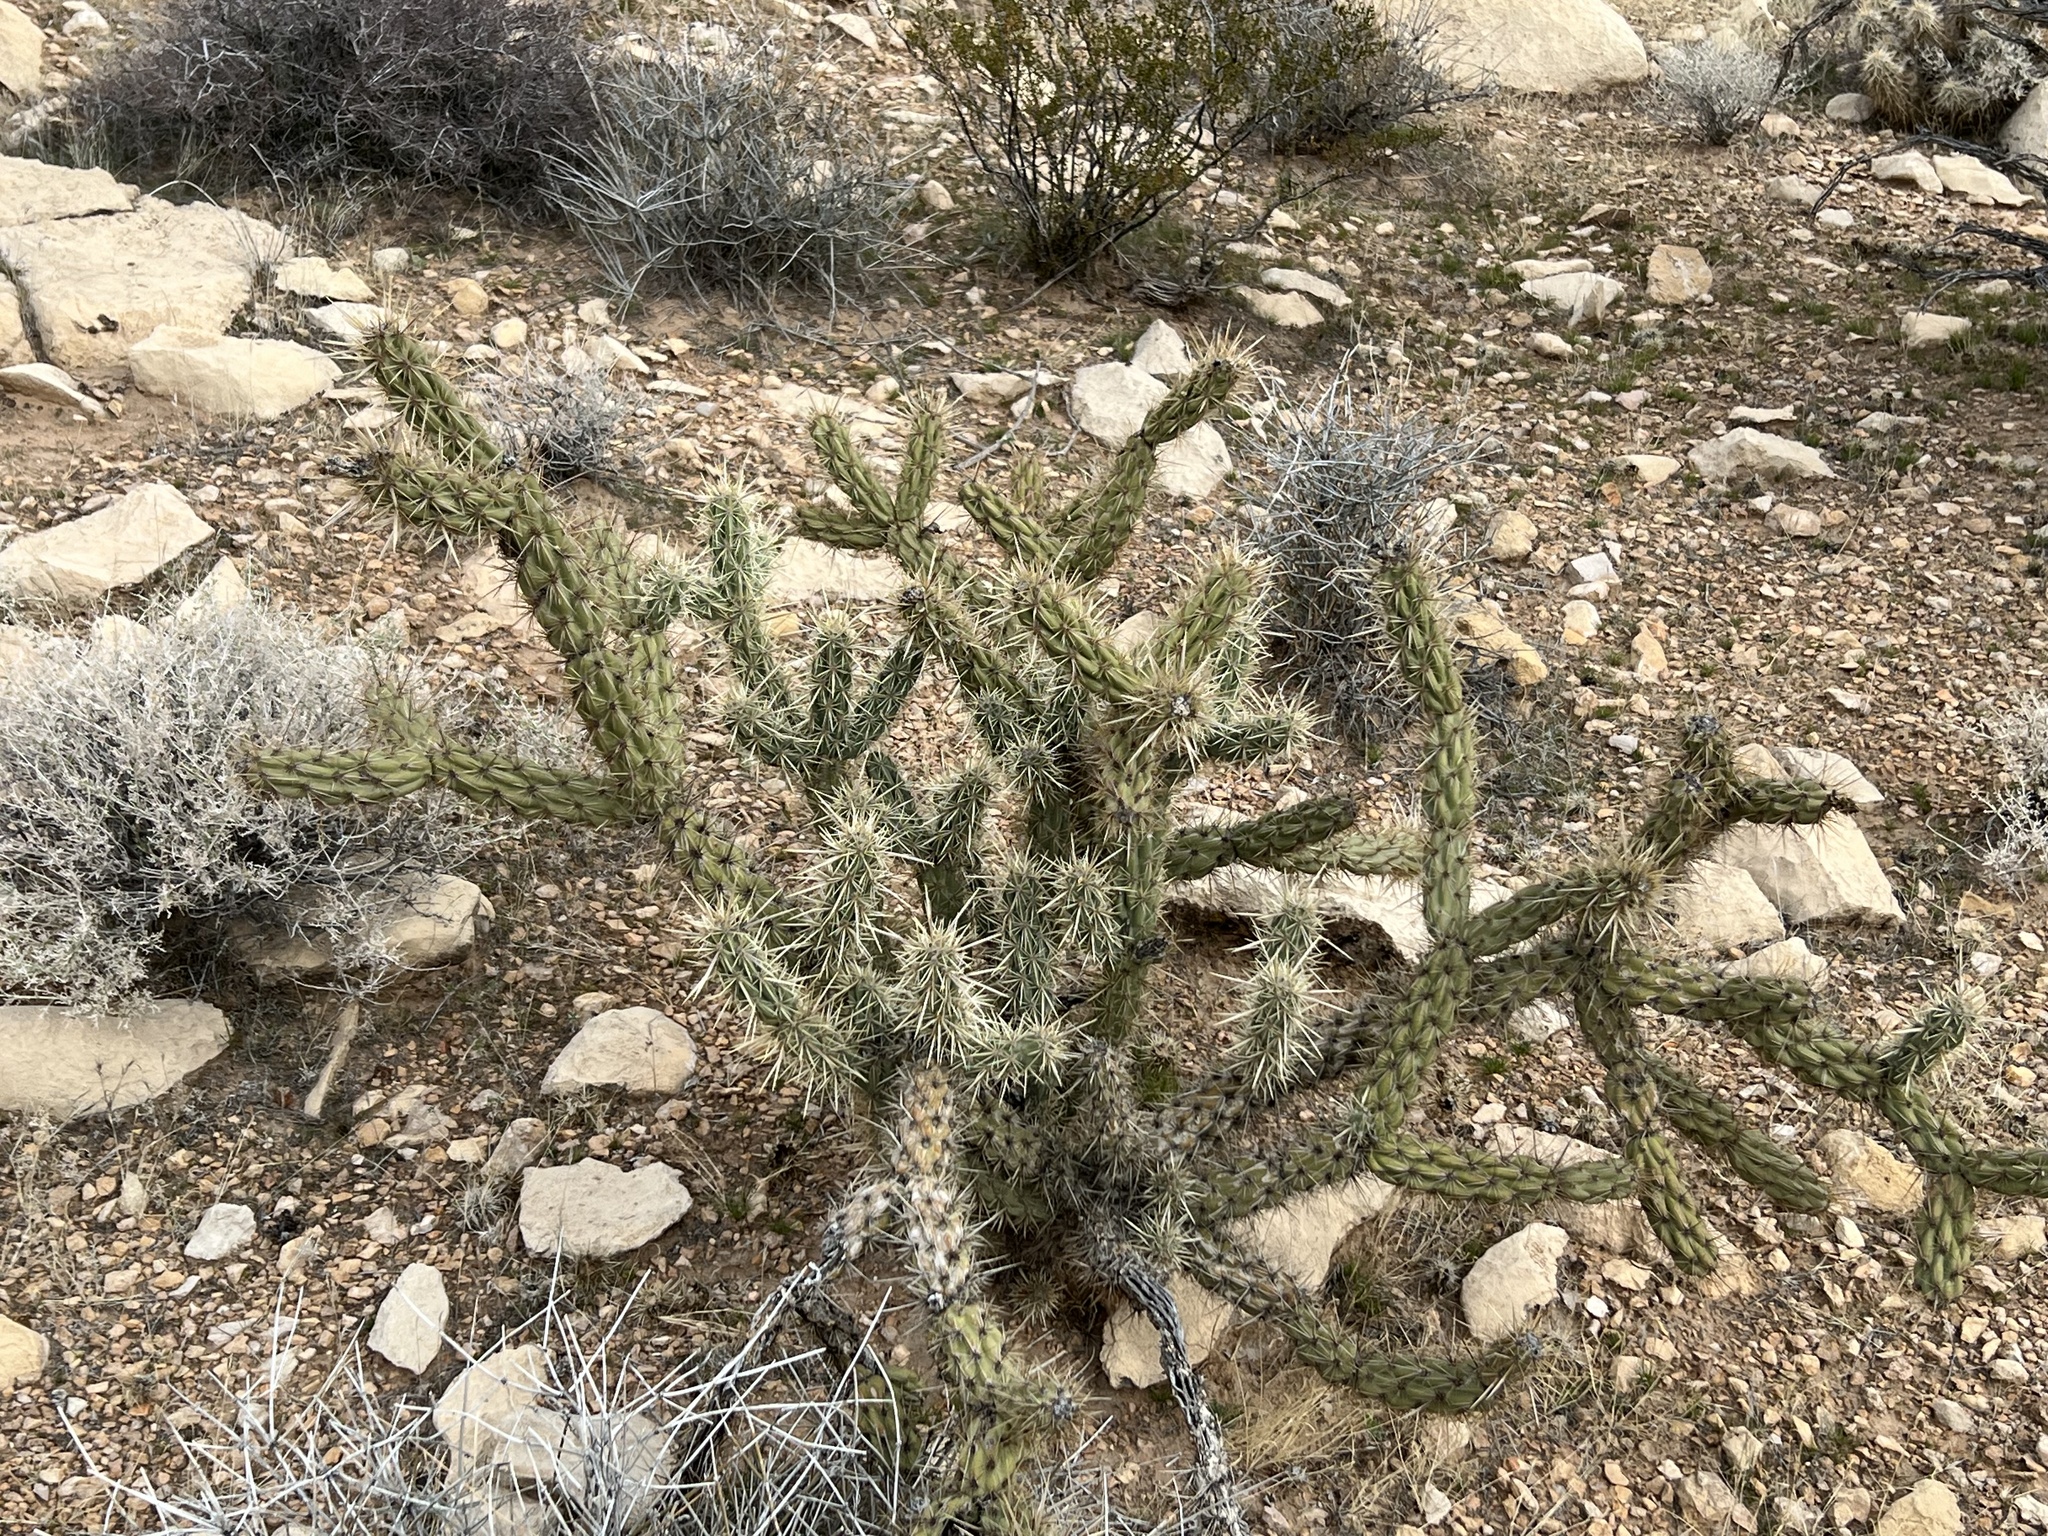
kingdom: Plantae
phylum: Tracheophyta
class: Magnoliopsida
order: Caryophyllales
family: Cactaceae
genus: Cylindropuntia
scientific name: Cylindropuntia acanthocarpa
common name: Buckhorn cholla
